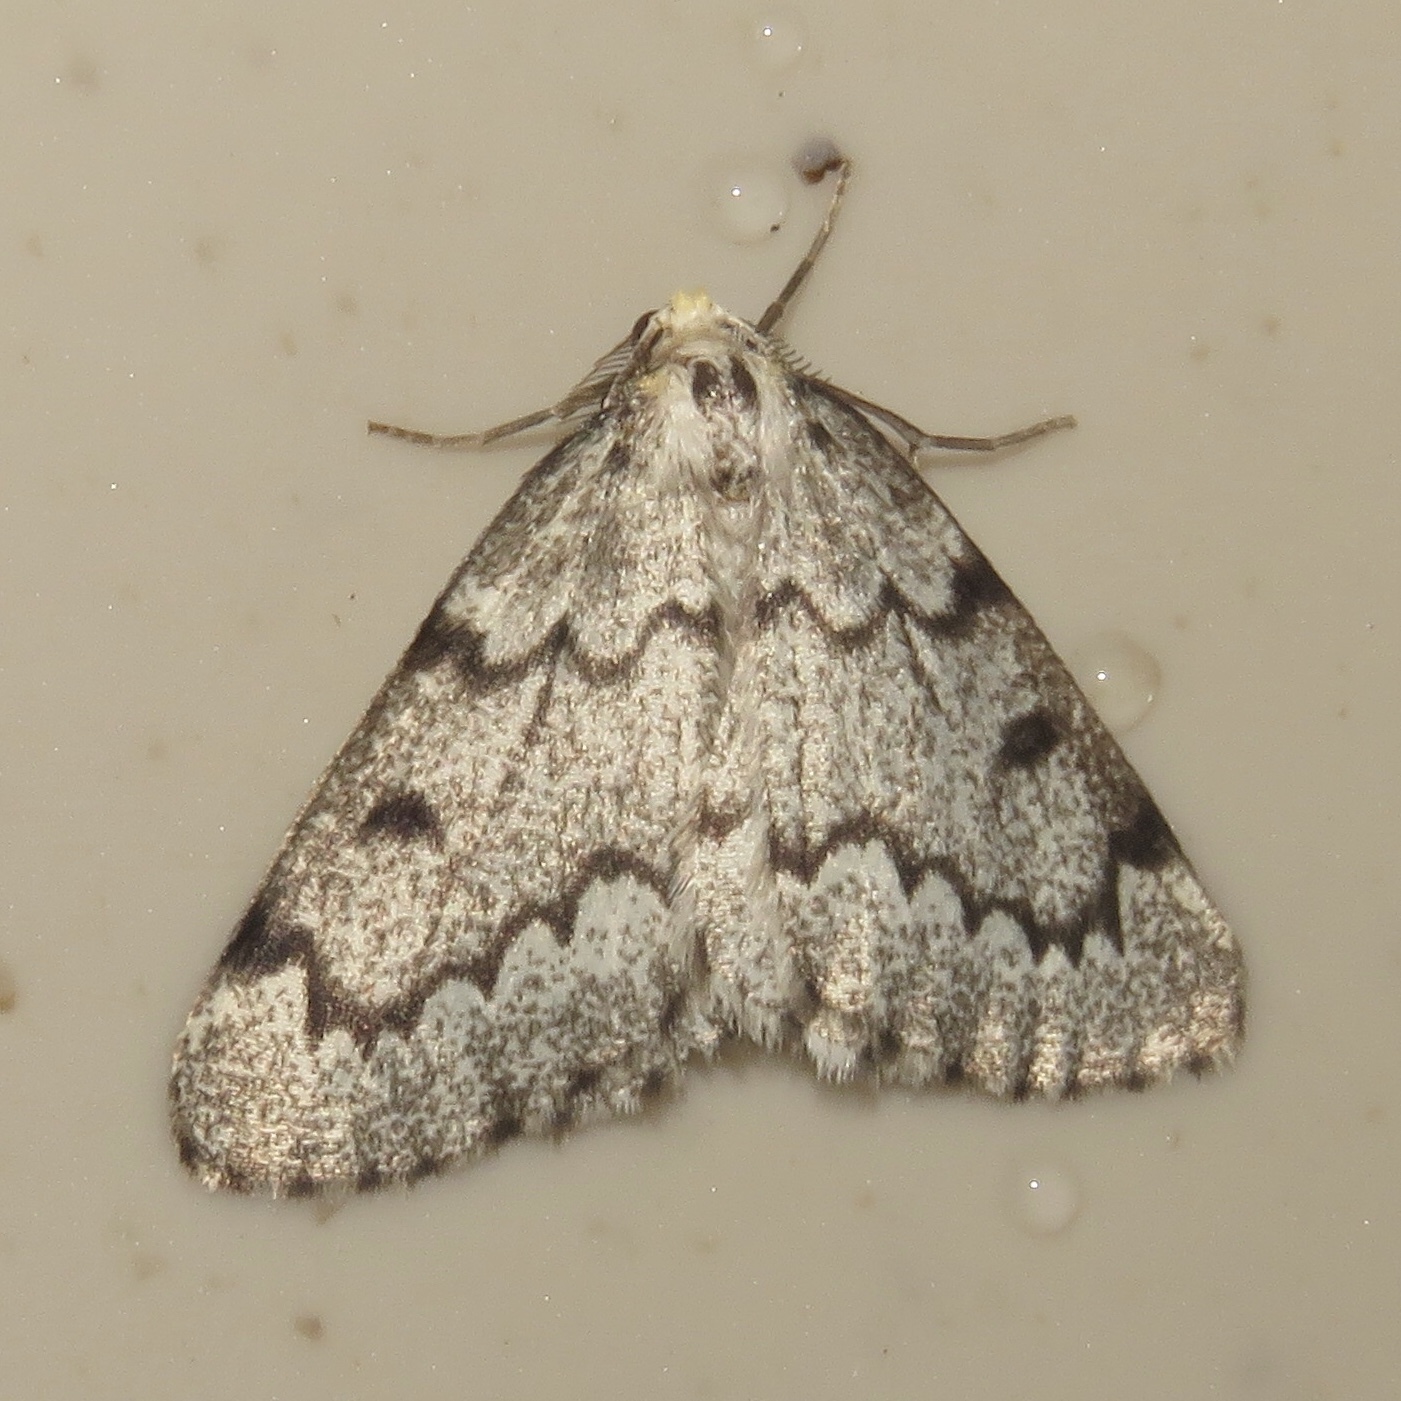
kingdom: Animalia
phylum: Arthropoda
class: Insecta
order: Lepidoptera
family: Geometridae
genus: Nepytia
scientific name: Nepytia canosaria
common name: False hemlock looper
